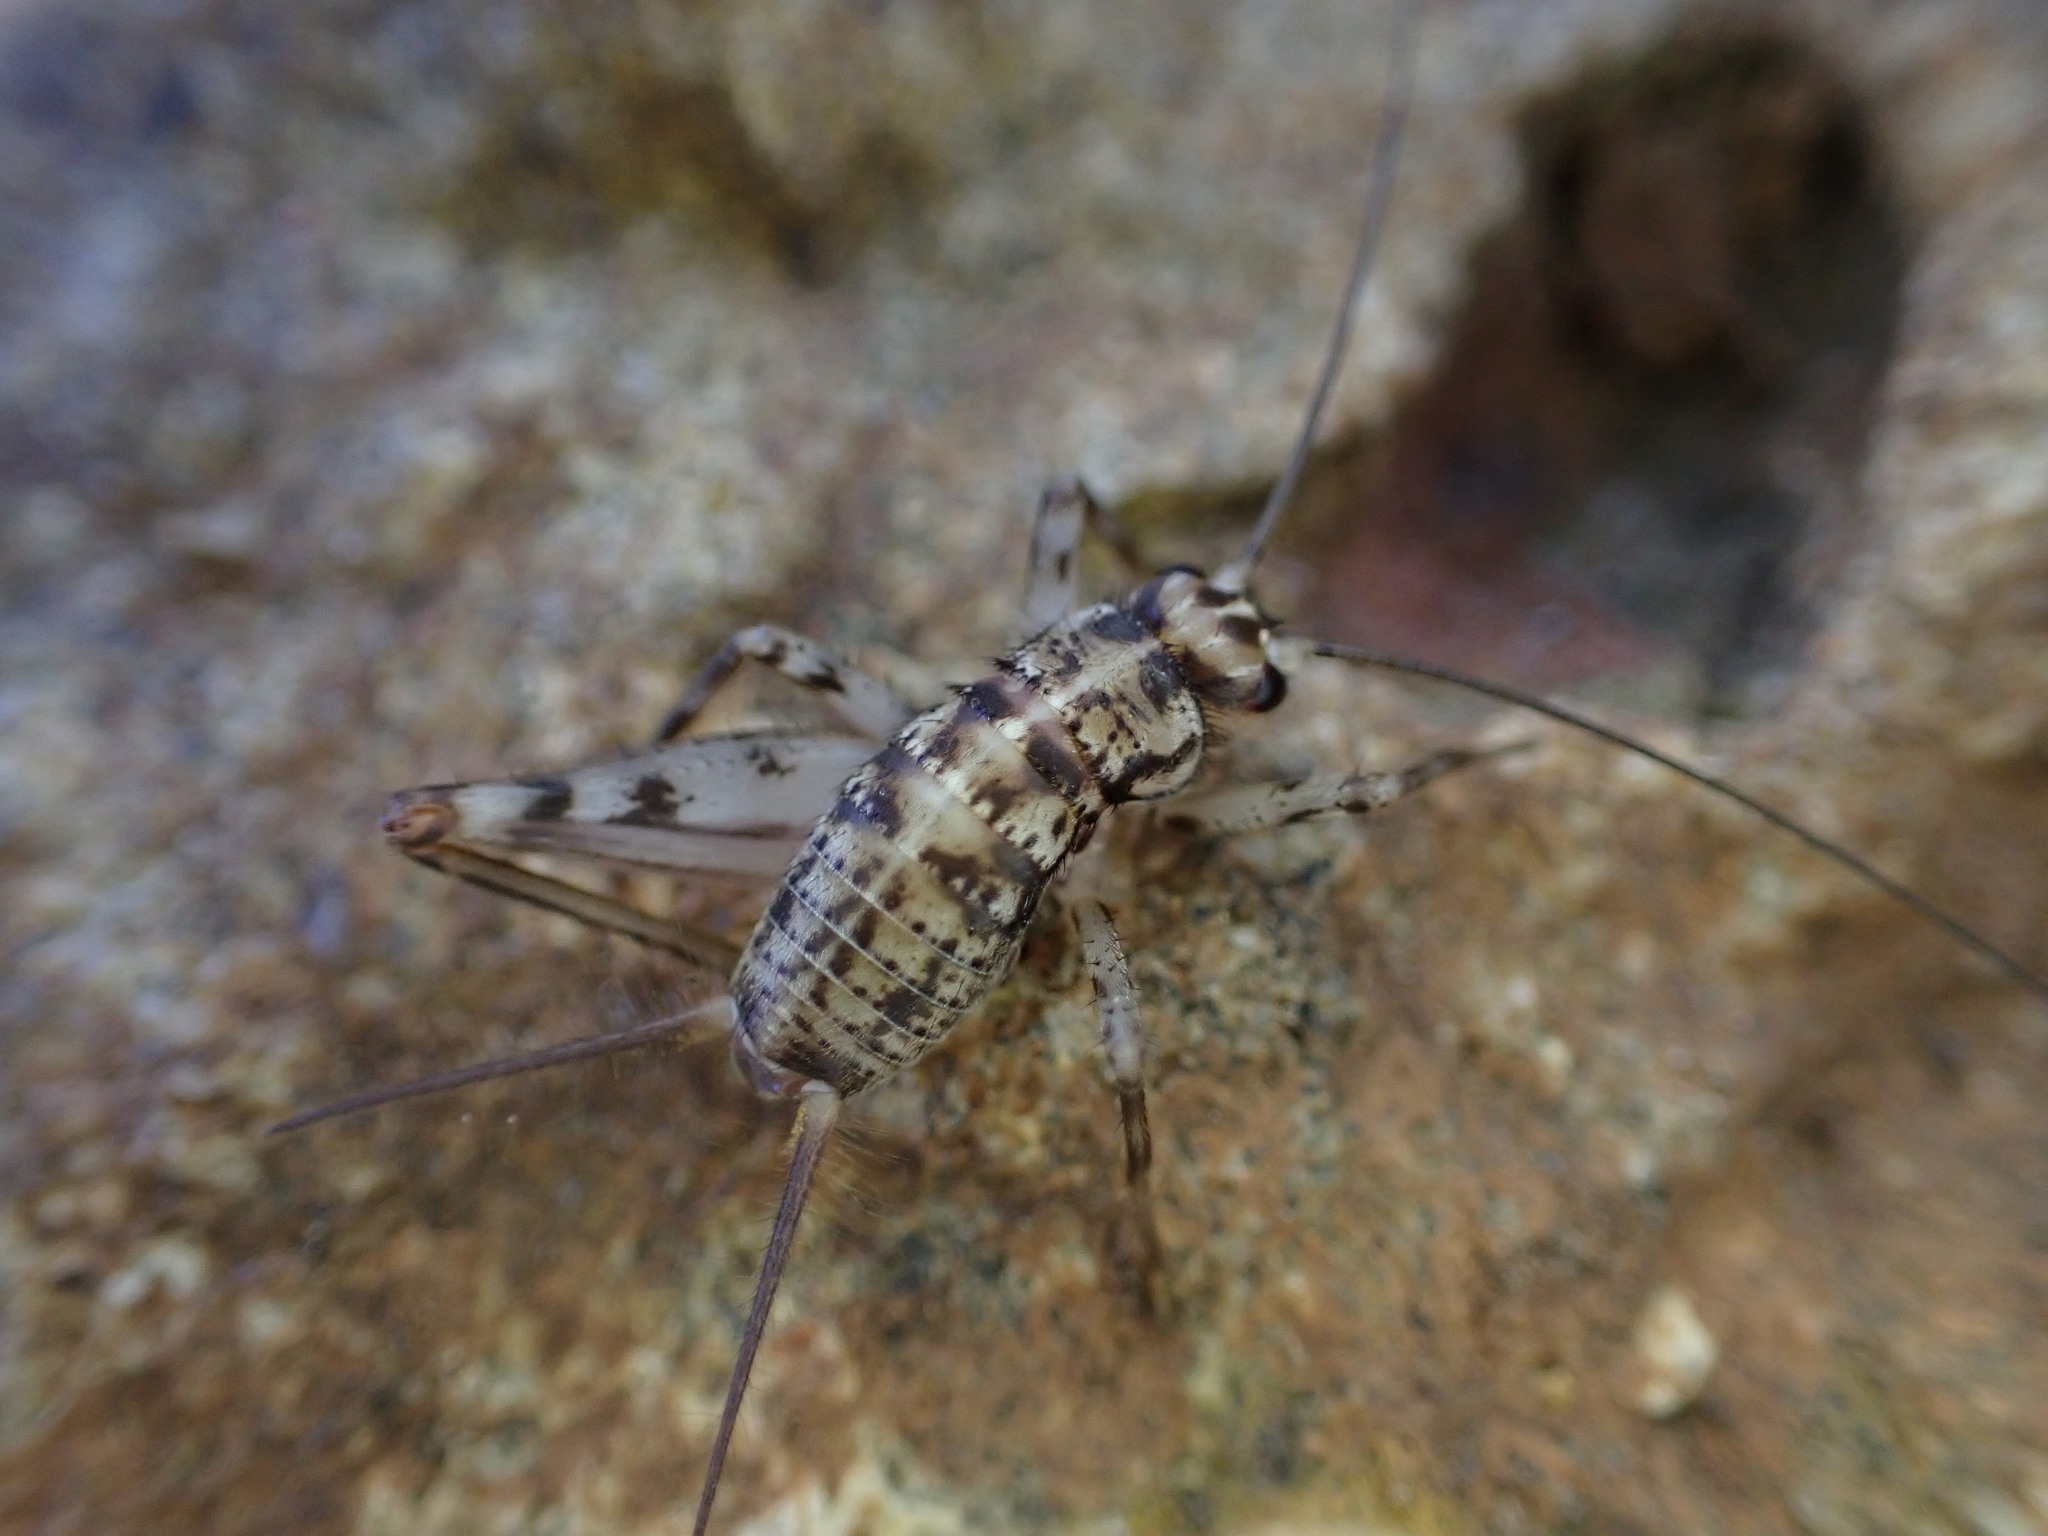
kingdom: Animalia
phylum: Arthropoda
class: Insecta
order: Orthoptera
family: Gryllidae
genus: Gryllomorpha
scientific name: Gryllomorpha dalmatina
